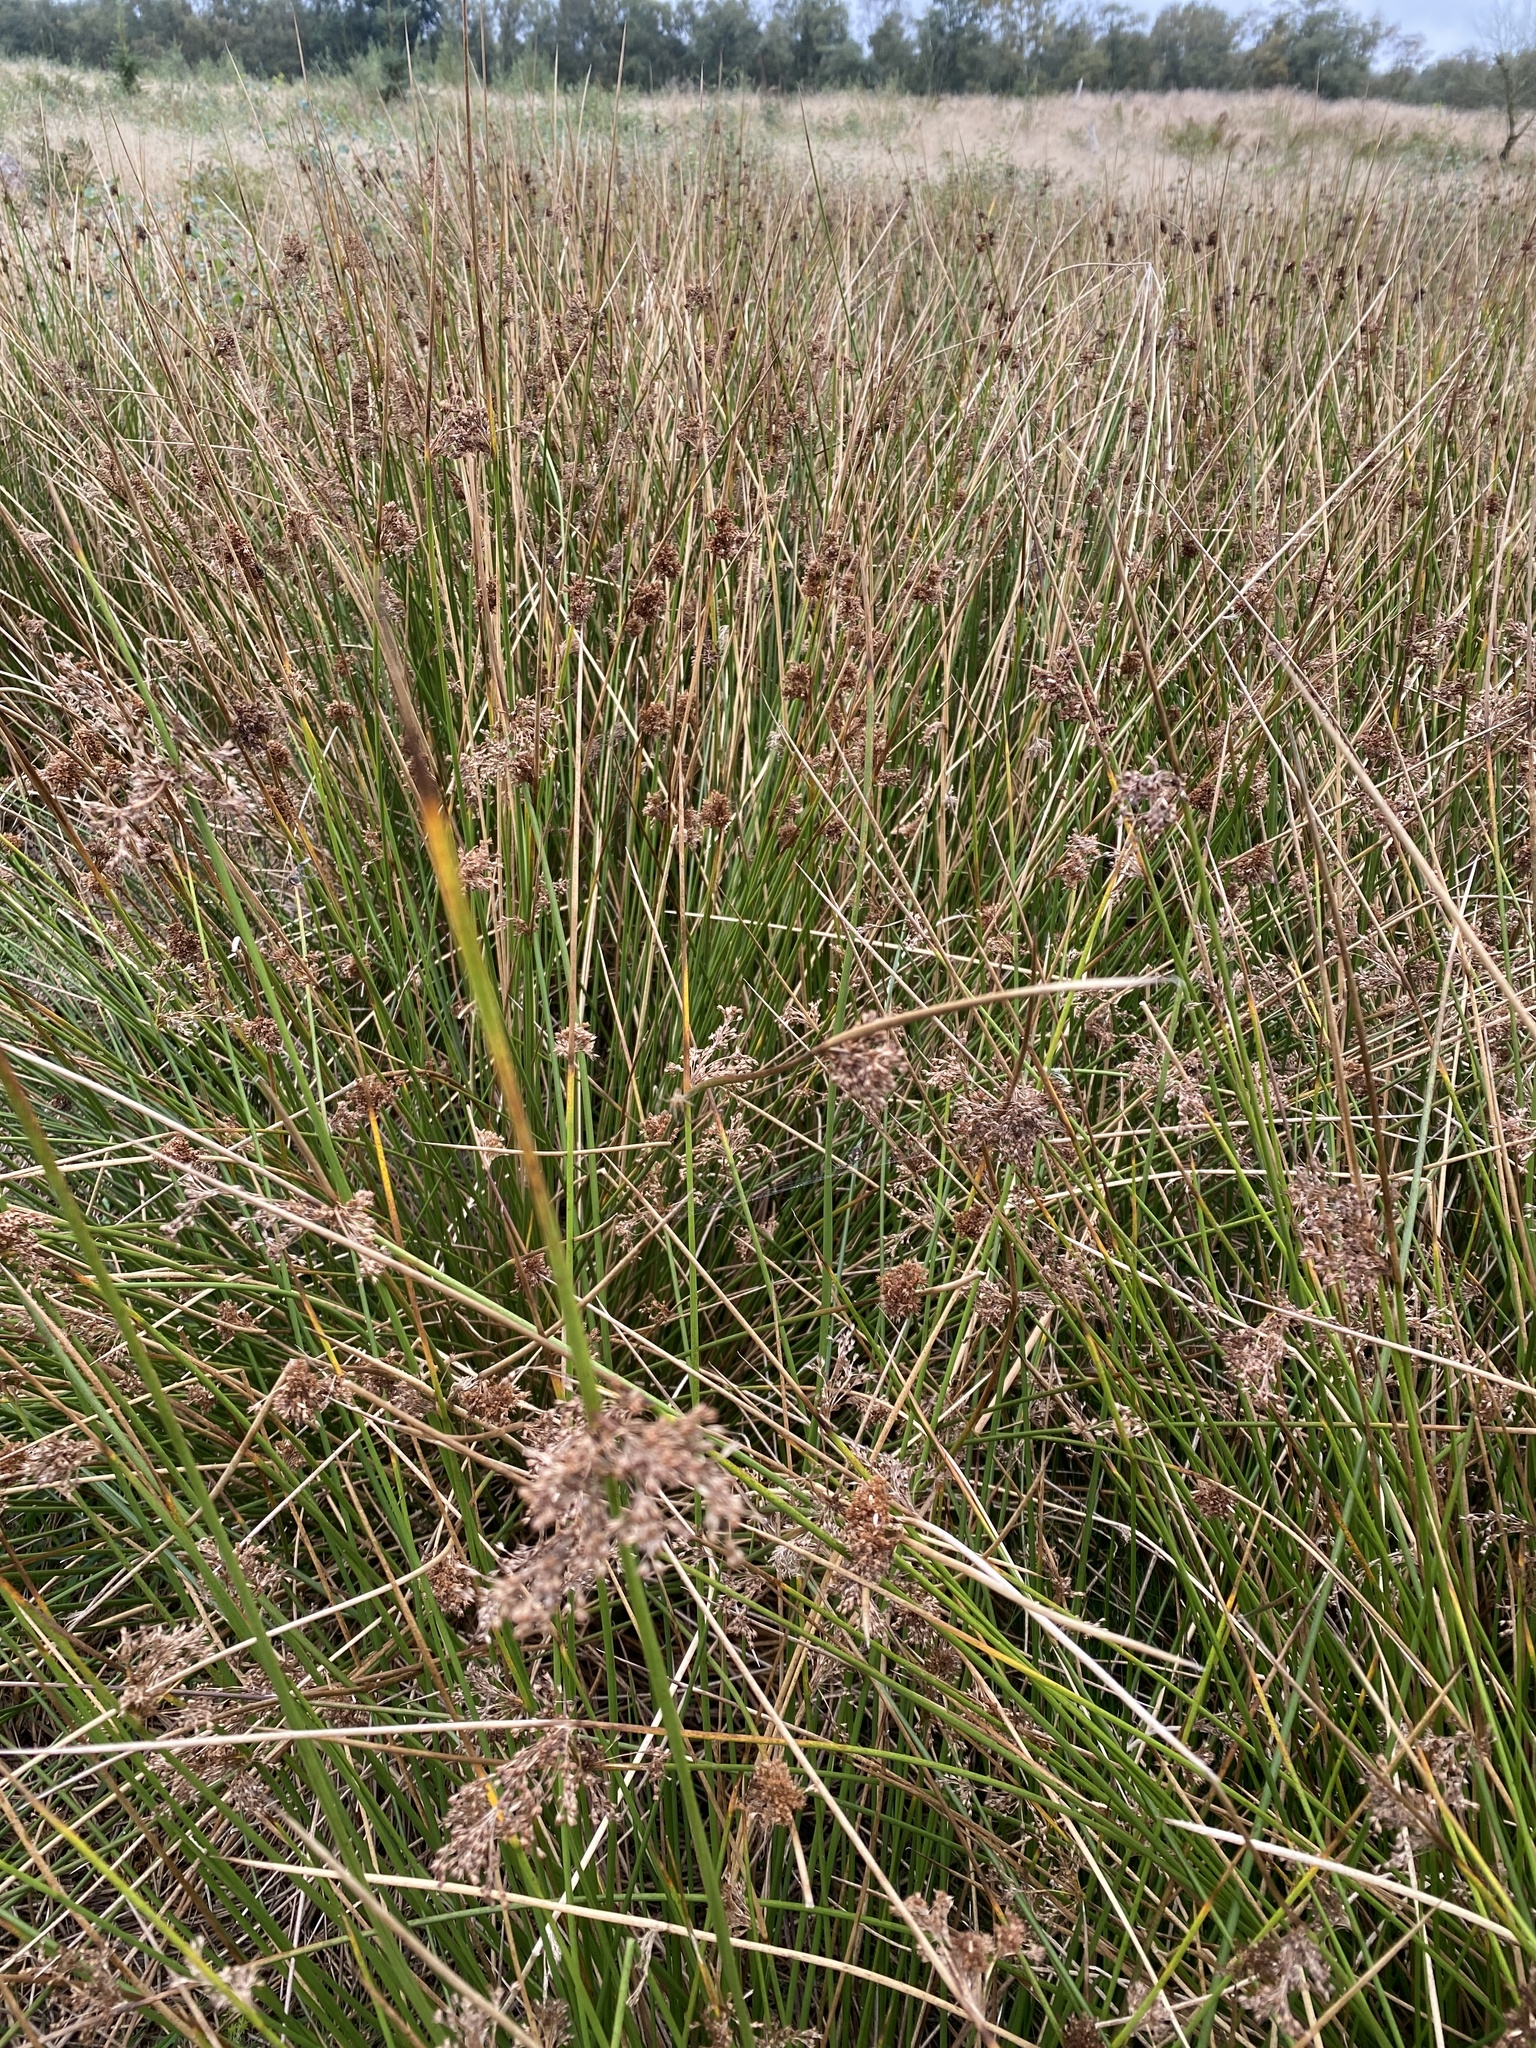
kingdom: Plantae
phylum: Tracheophyta
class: Liliopsida
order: Poales
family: Juncaceae
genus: Juncus
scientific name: Juncus effusus
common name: Soft rush
